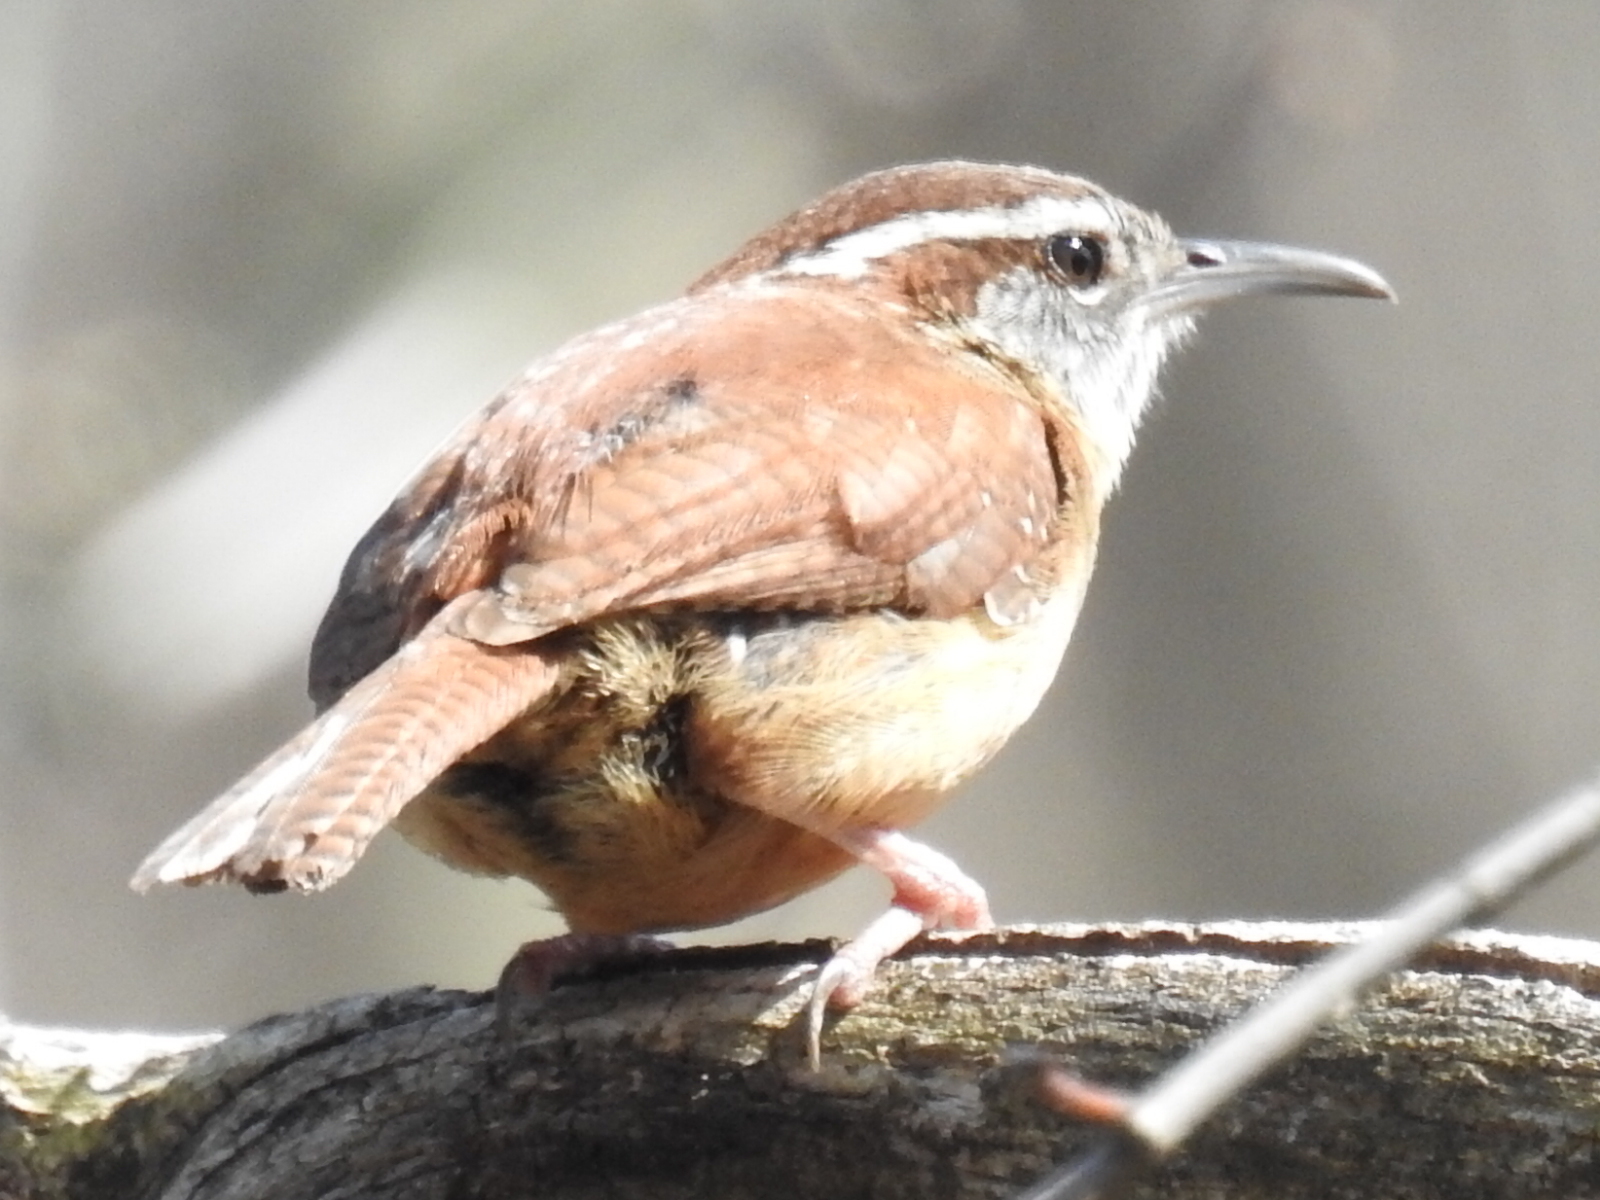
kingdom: Animalia
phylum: Chordata
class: Aves
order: Passeriformes
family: Troglodytidae
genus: Thryothorus
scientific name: Thryothorus ludovicianus
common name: Carolina wren
